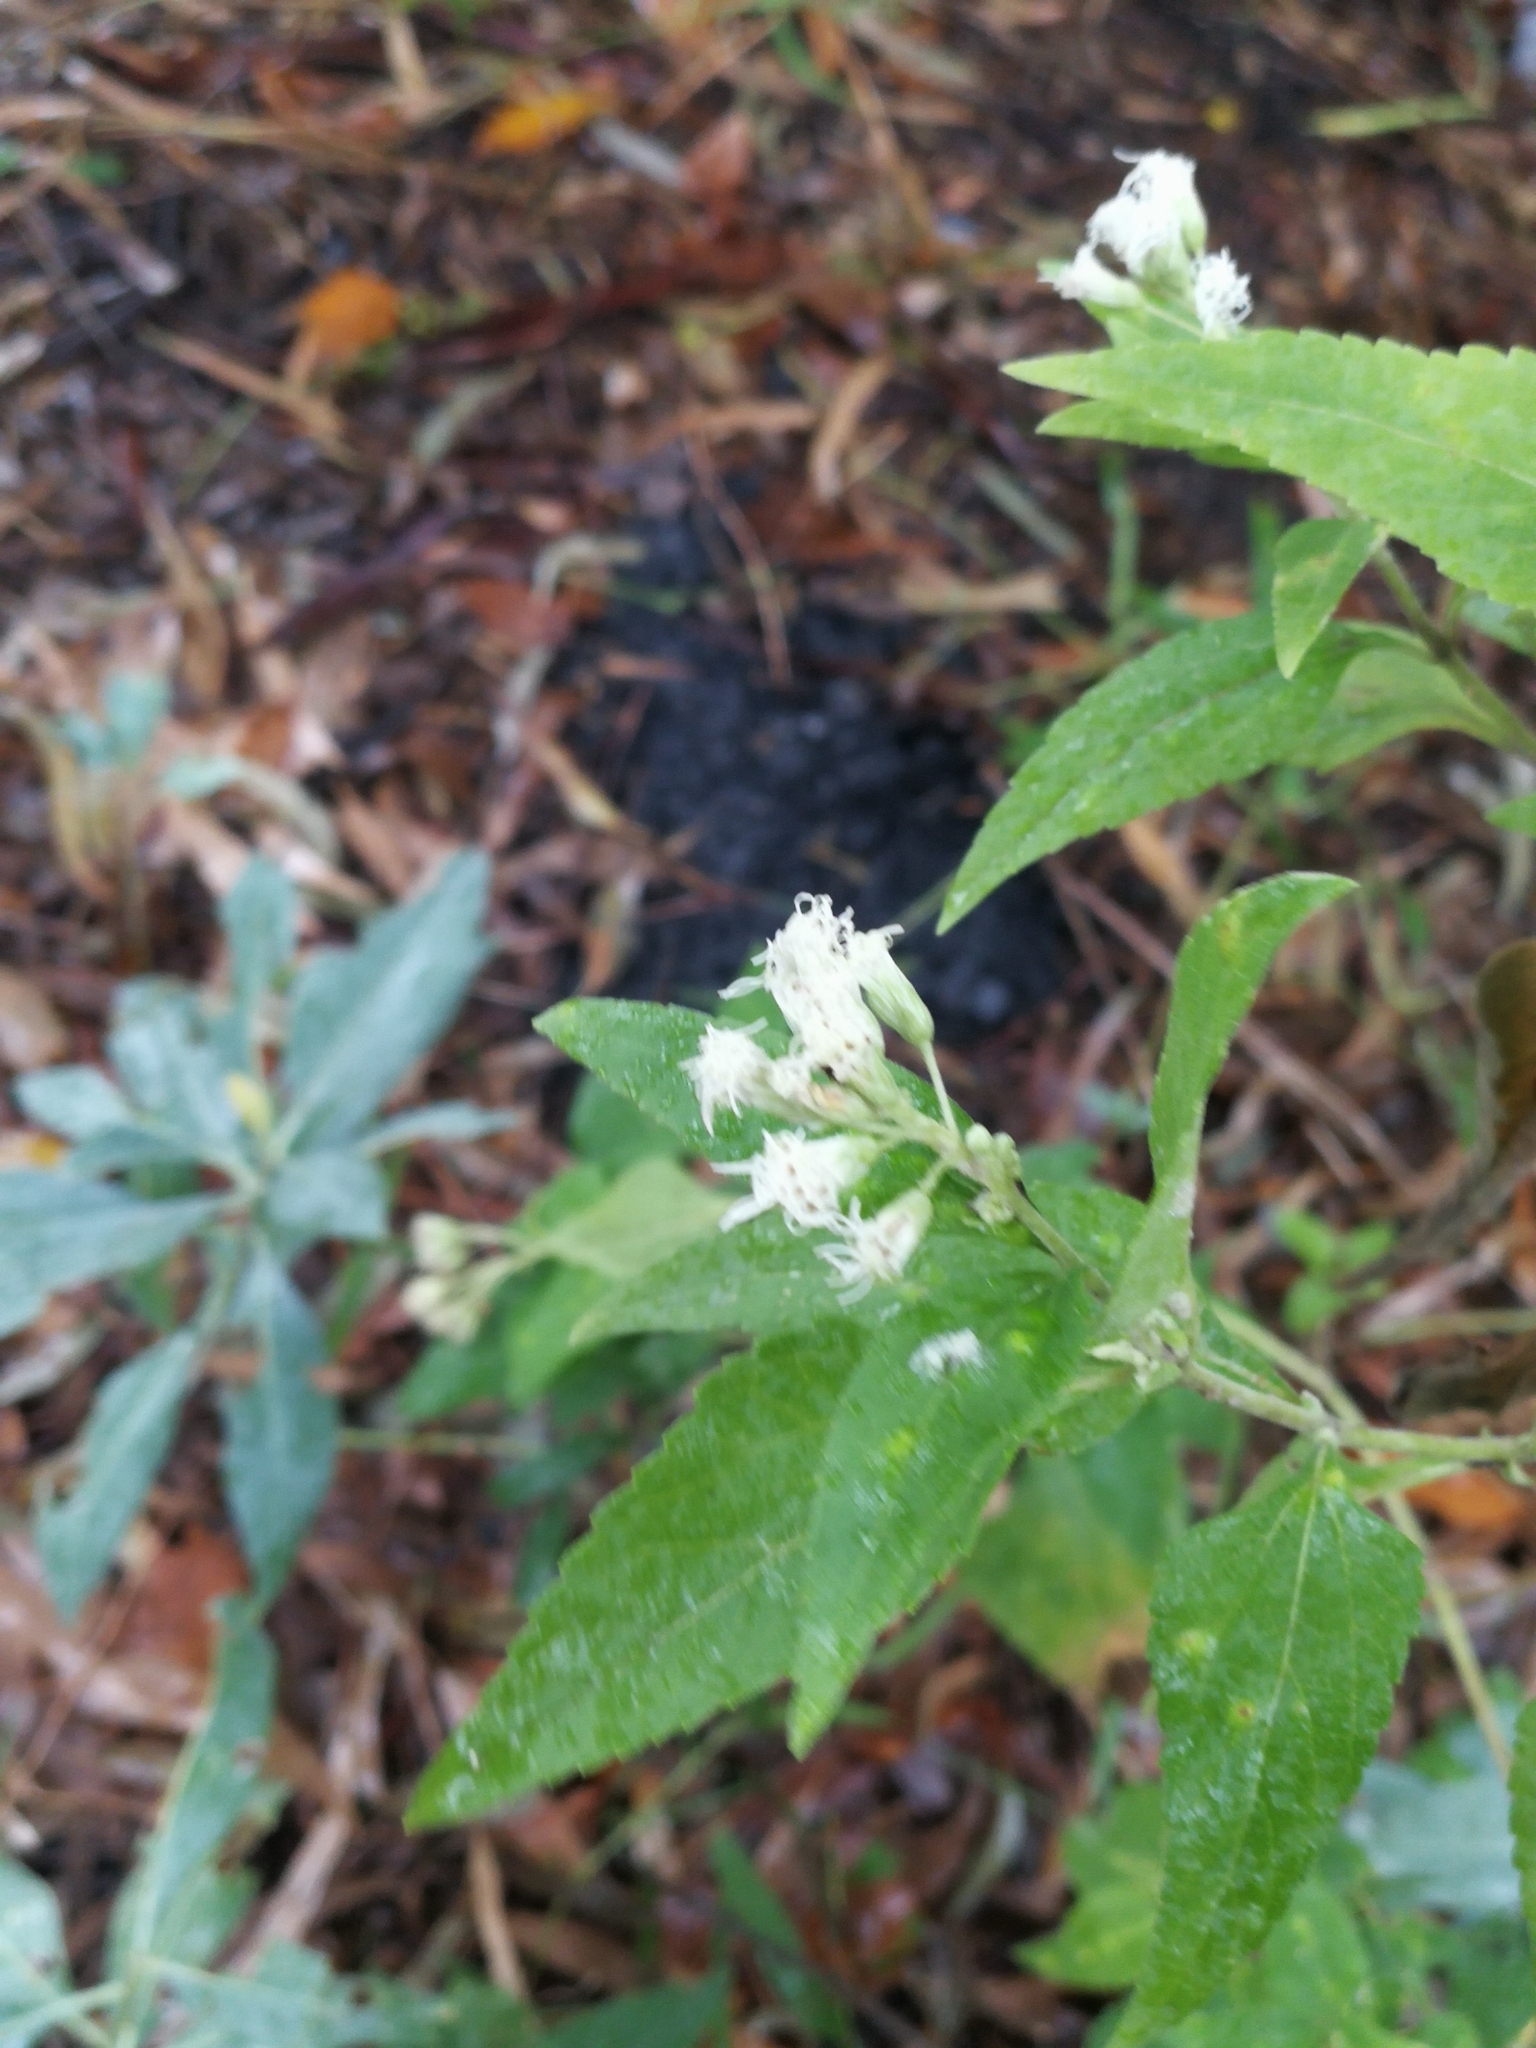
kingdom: Plantae
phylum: Tracheophyta
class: Magnoliopsida
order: Asterales
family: Asteraceae
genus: Austroeupatorium
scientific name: Austroeupatorium inulifolium
